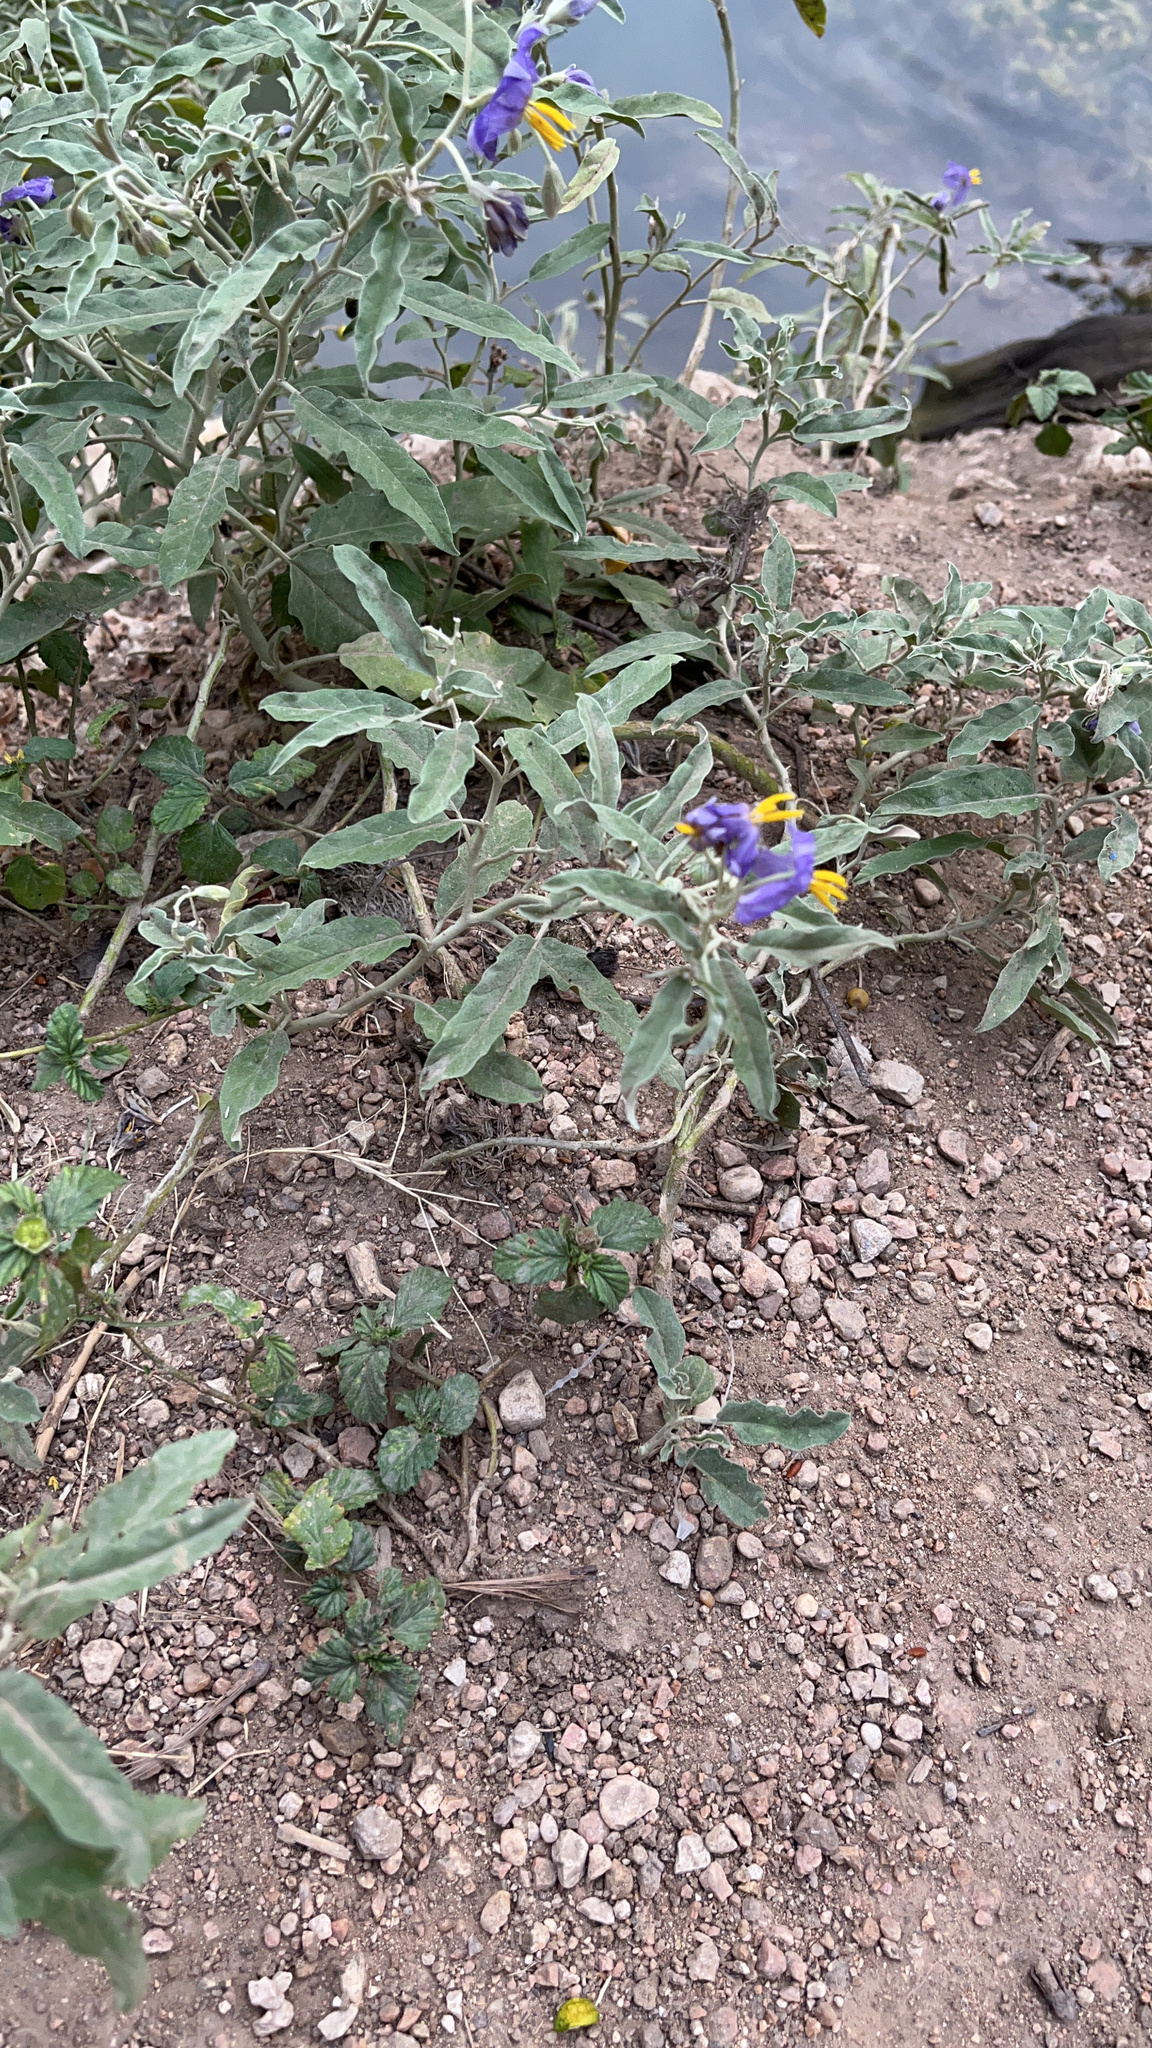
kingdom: Plantae
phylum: Tracheophyta
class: Magnoliopsida
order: Solanales
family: Solanaceae
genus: Solanum
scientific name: Solanum elaeagnifolium
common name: Silverleaf nightshade
